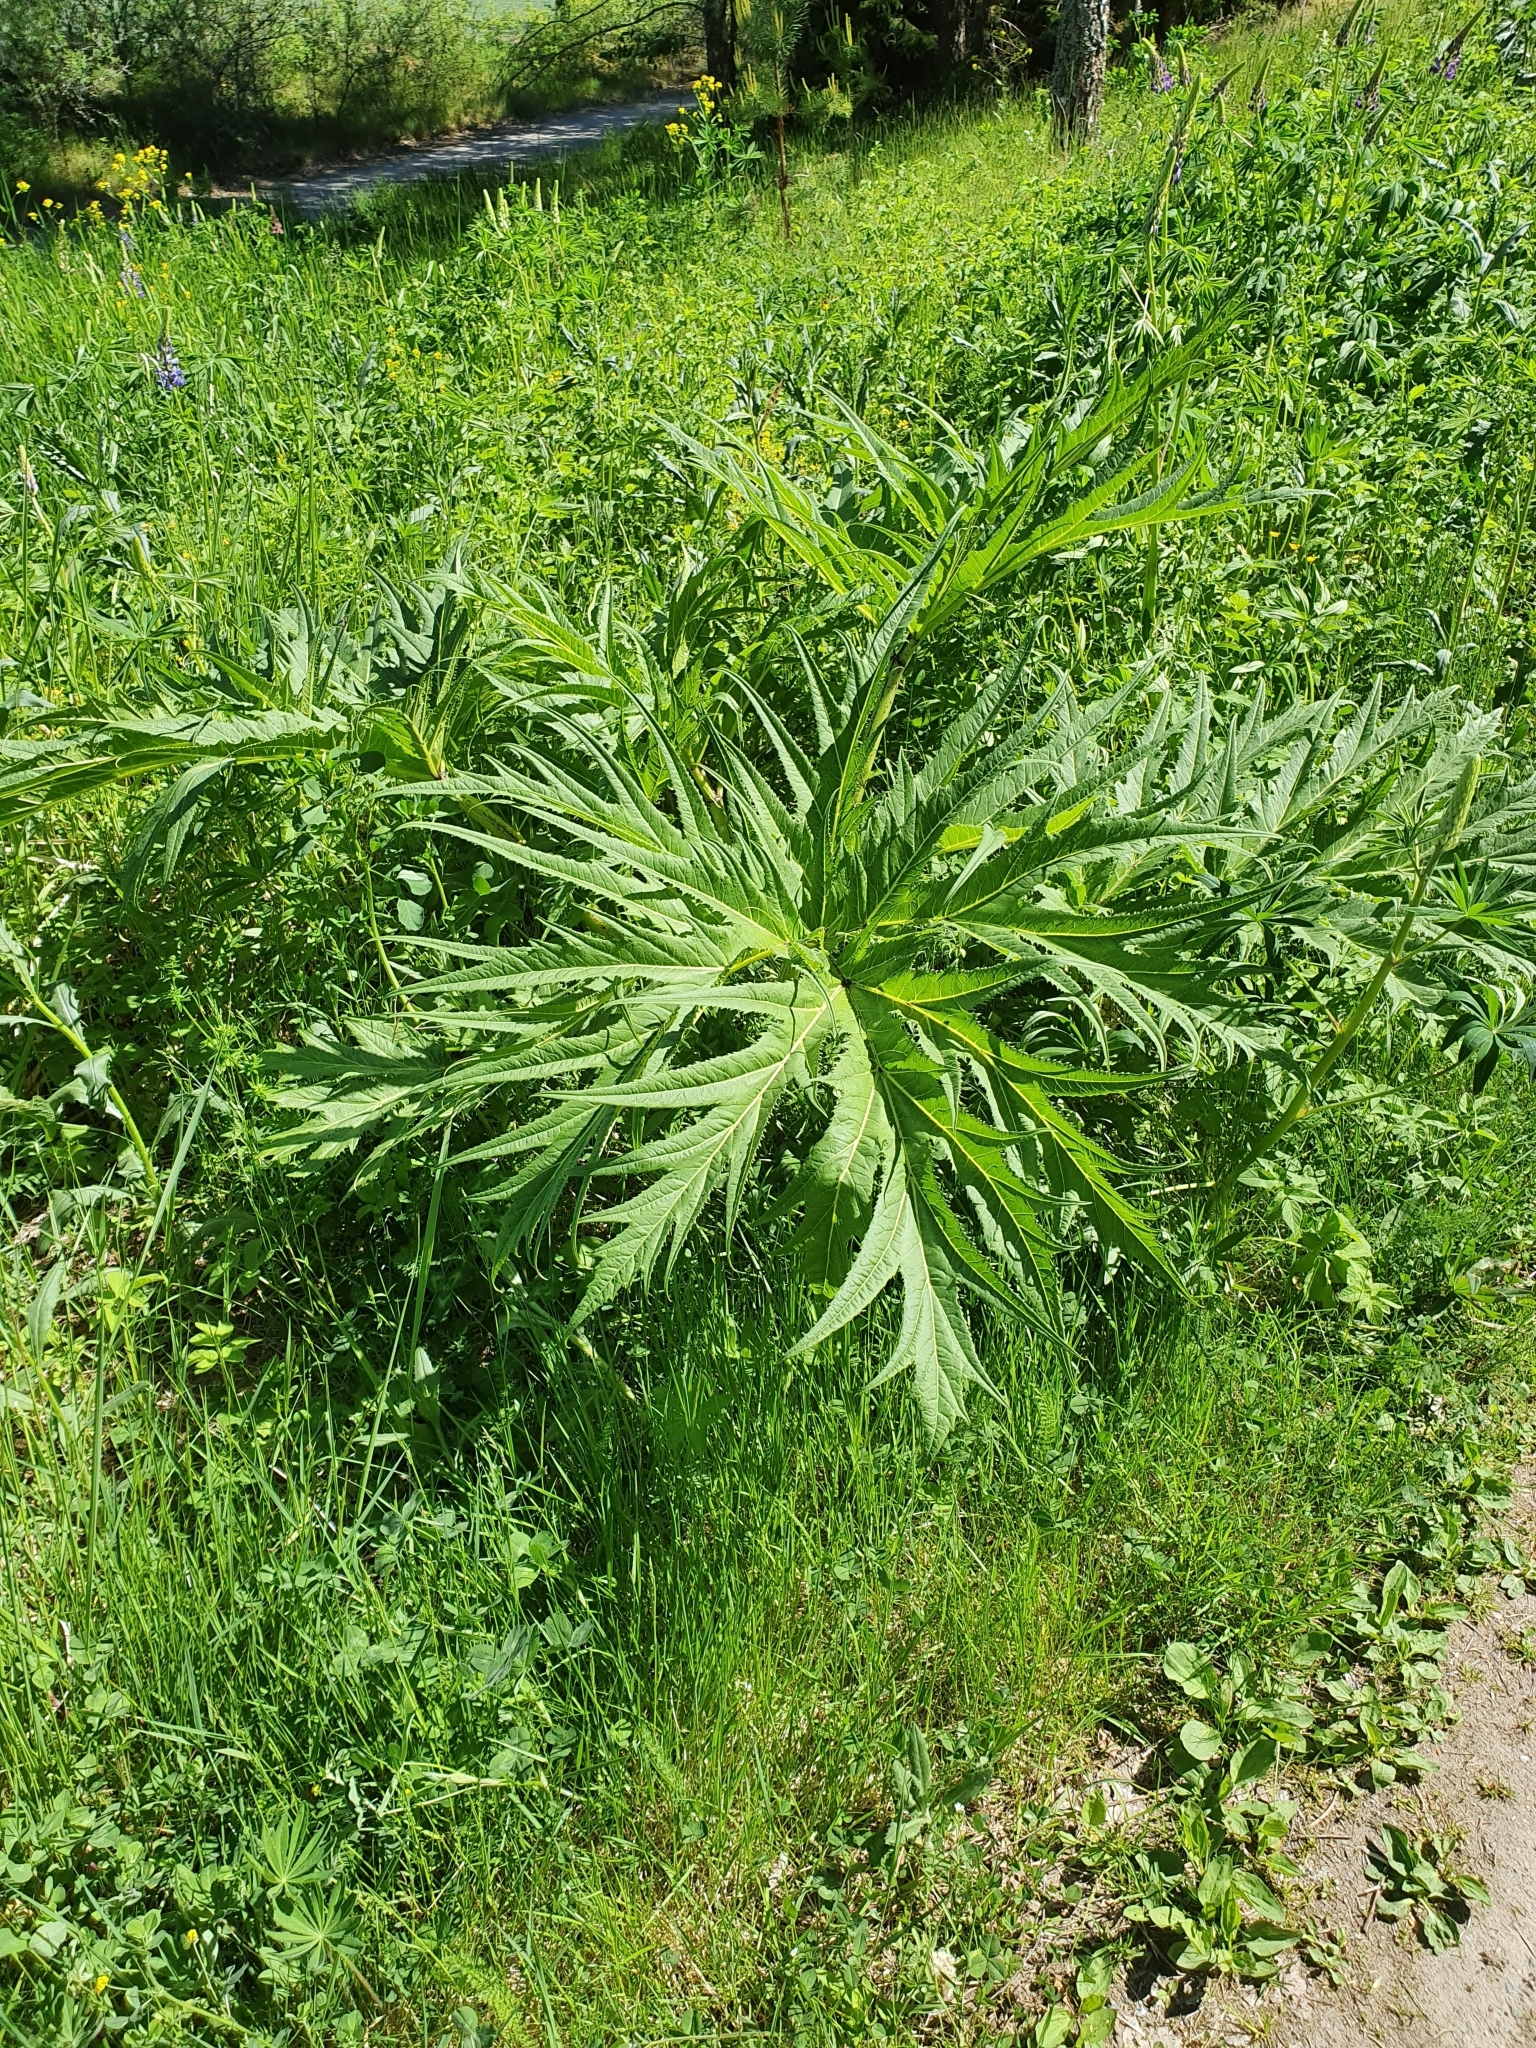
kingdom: Plantae
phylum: Tracheophyta
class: Magnoliopsida
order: Apiales
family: Apiaceae
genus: Heracleum
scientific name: Heracleum mantegazzianum
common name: Giant hogweed
